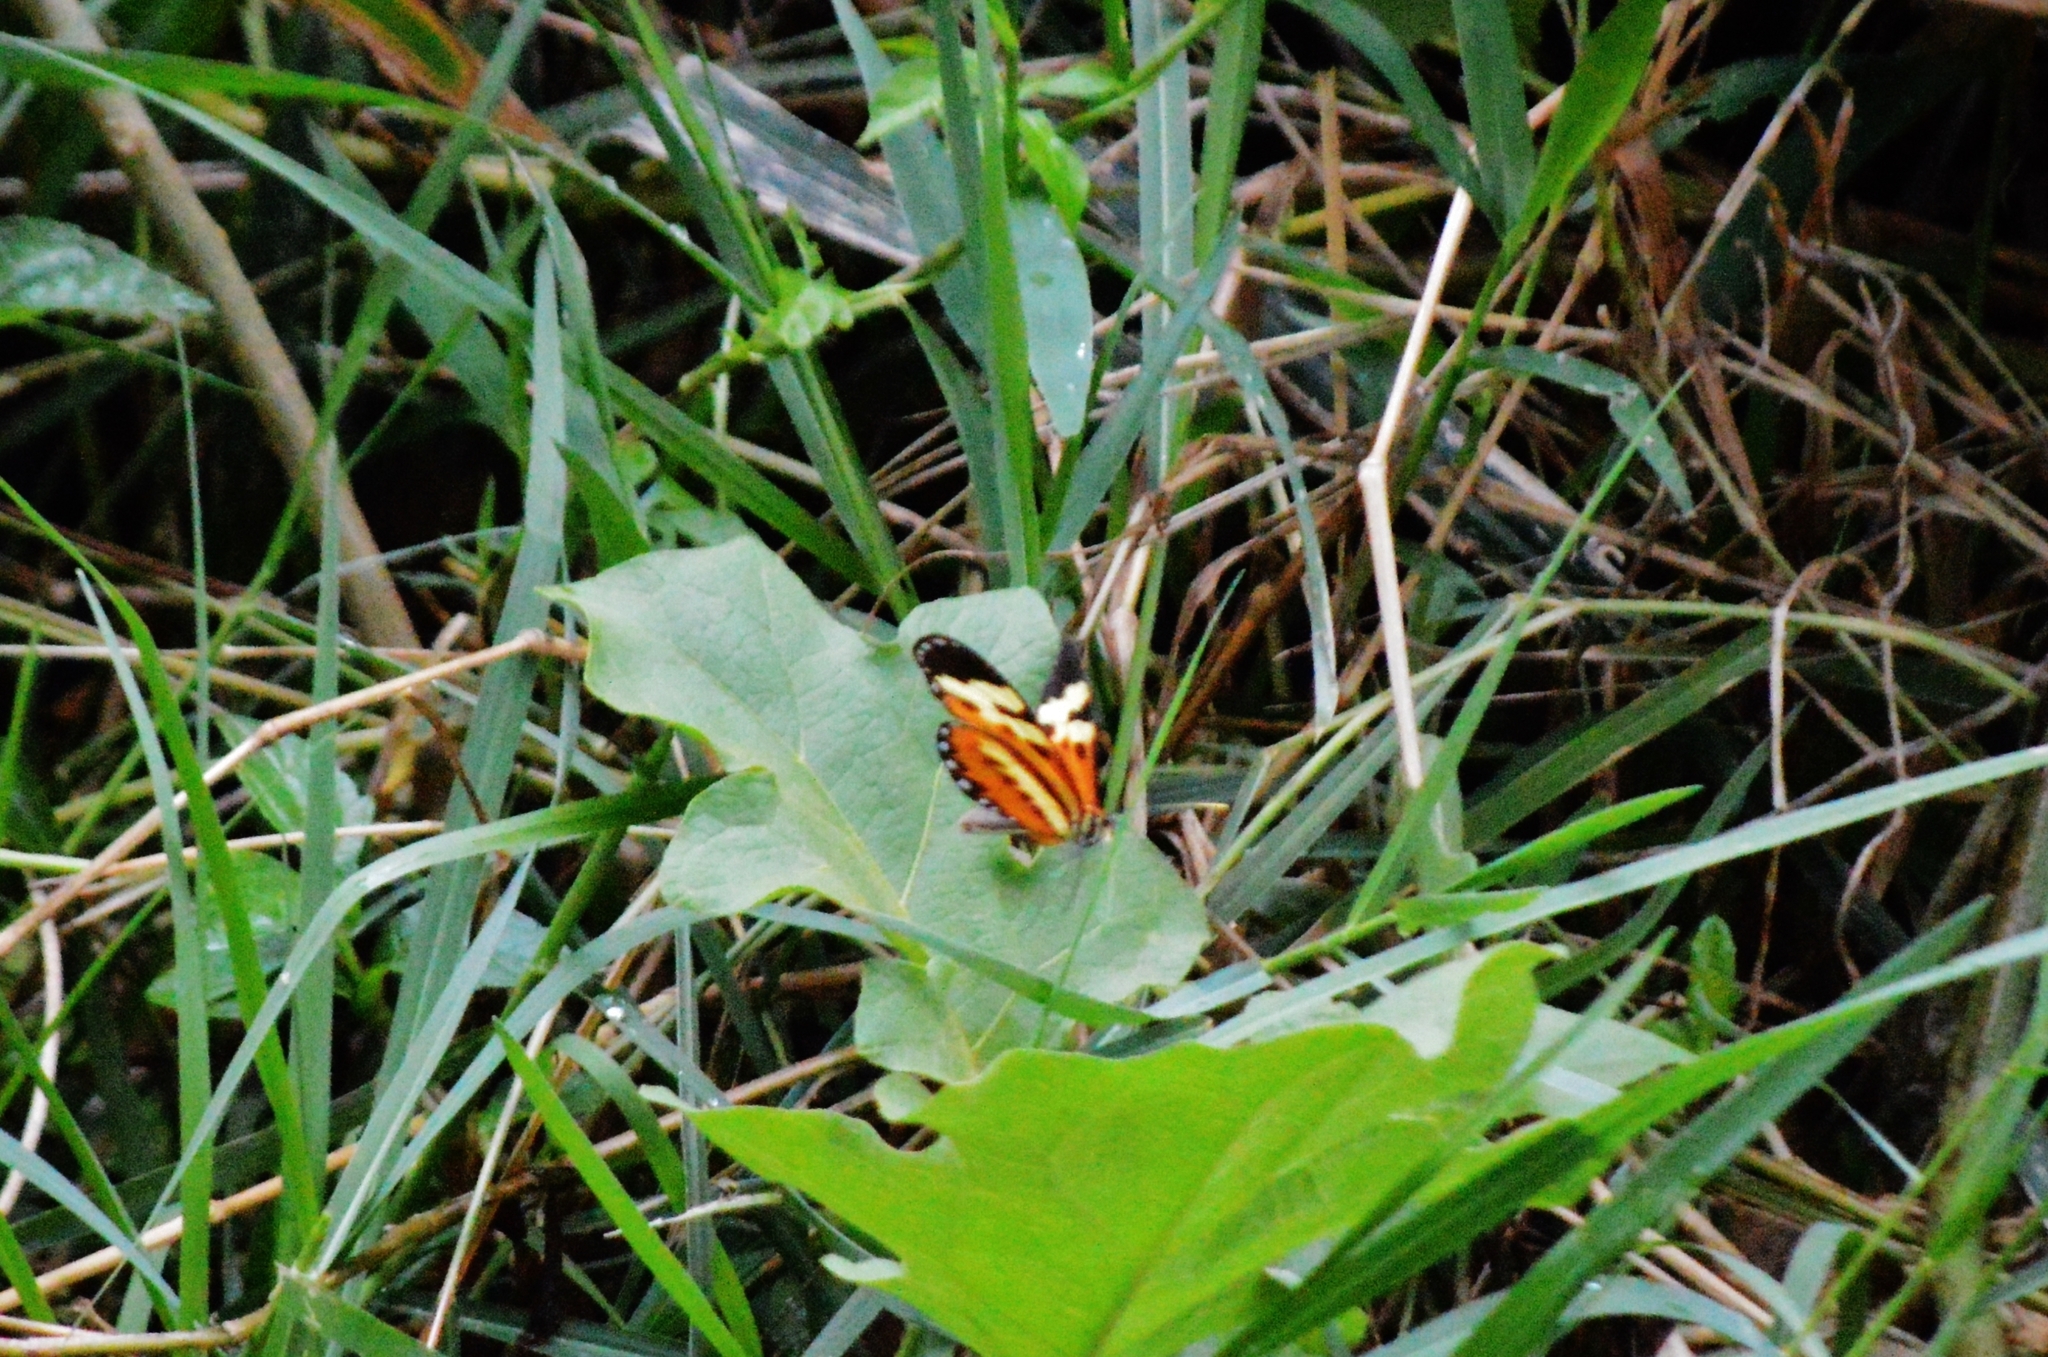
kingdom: Animalia
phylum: Arthropoda
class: Insecta
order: Lepidoptera
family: Nymphalidae
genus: Mechanitis
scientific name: Mechanitis polymnia
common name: Disturbed tigerwing
